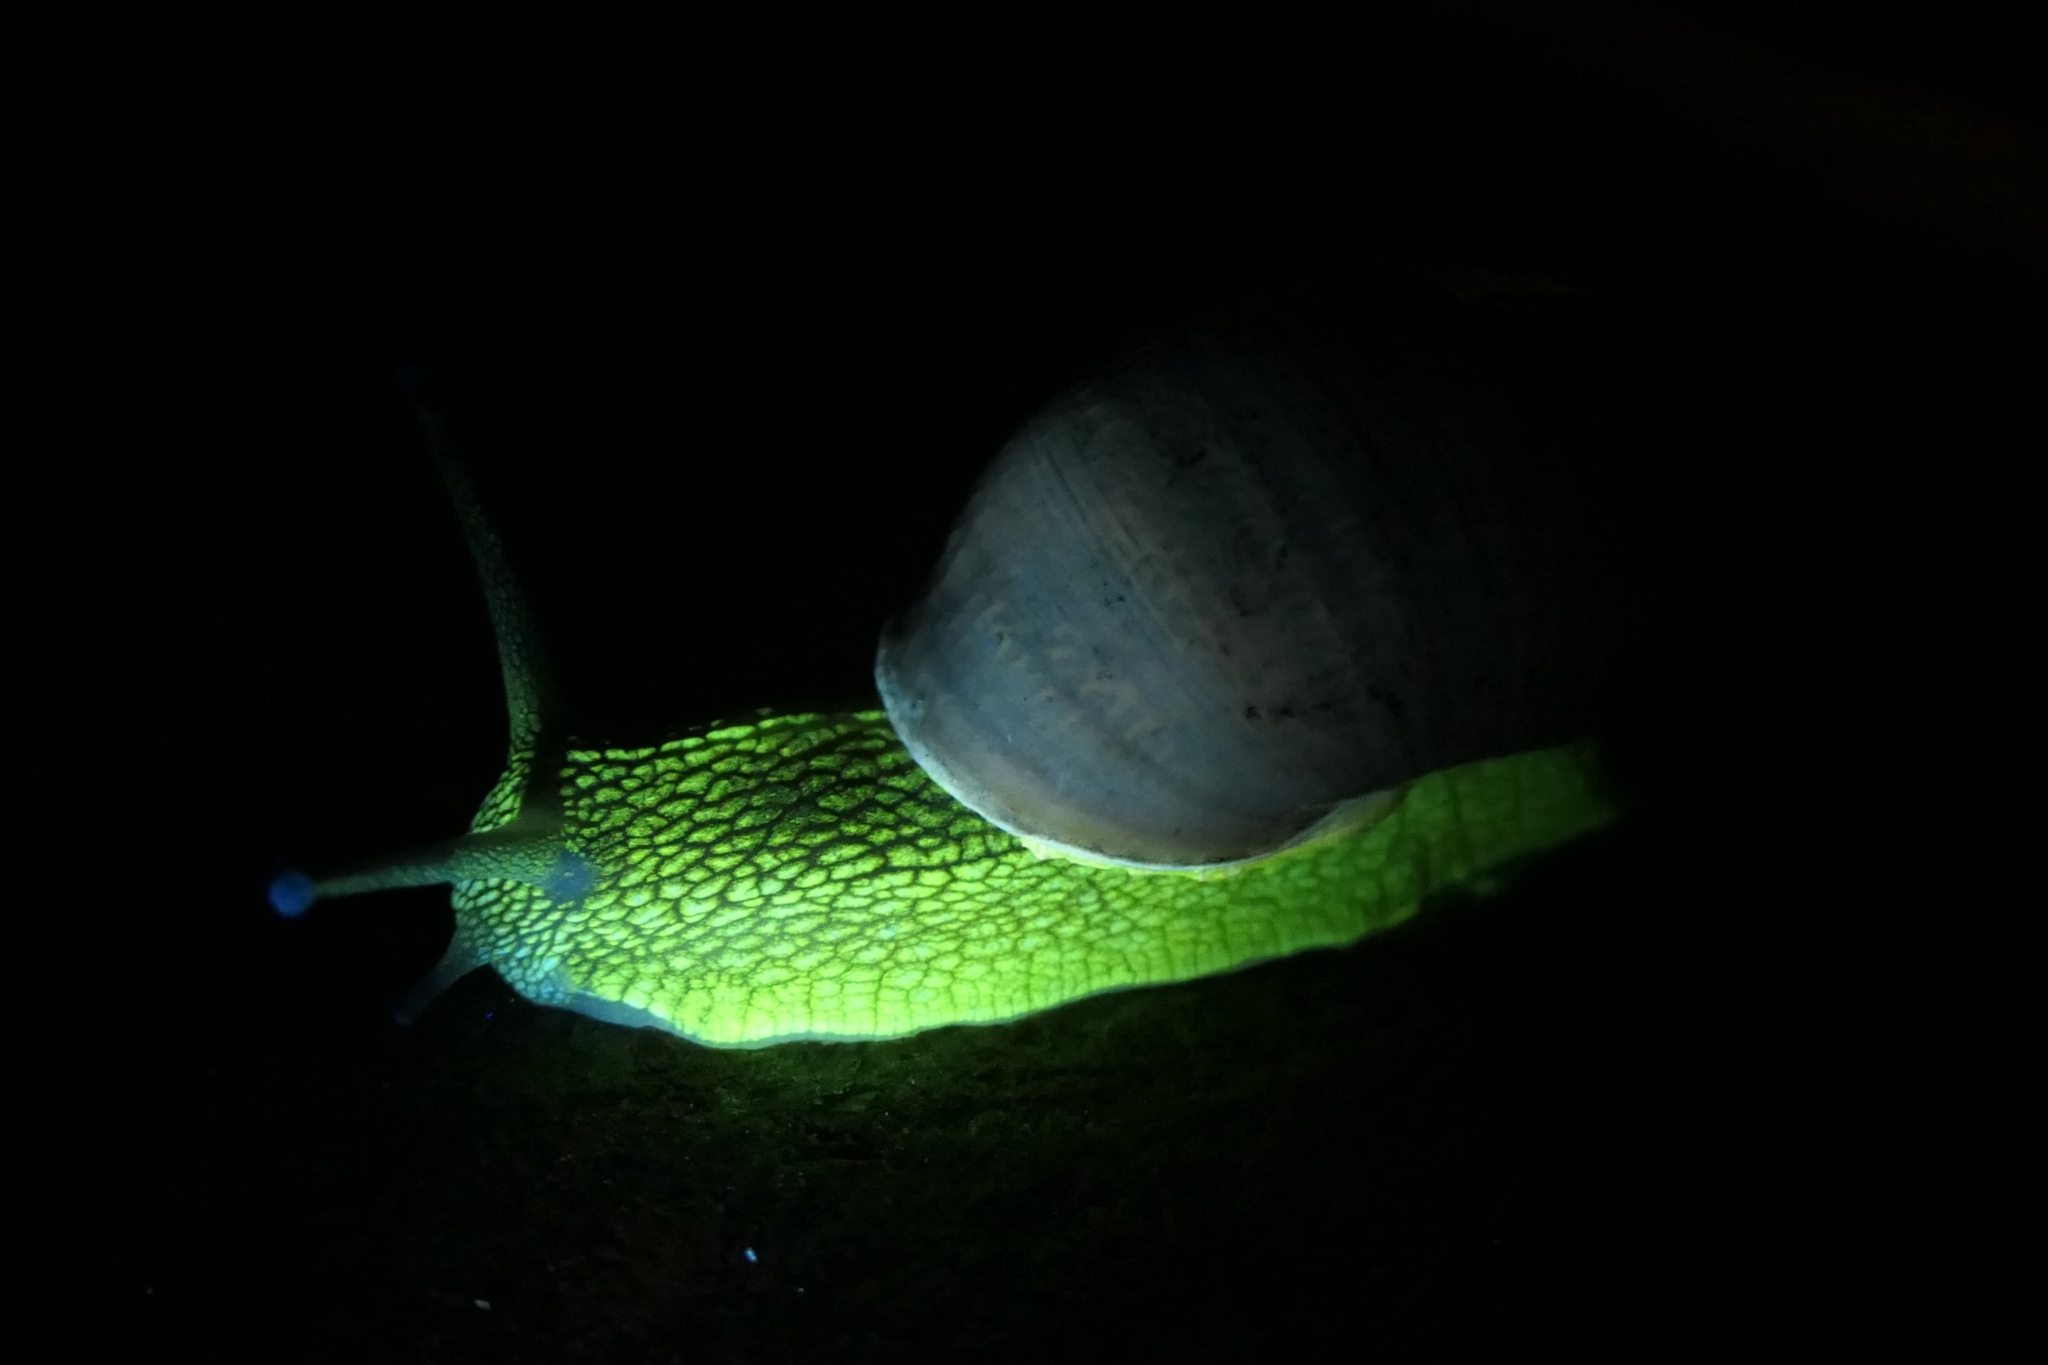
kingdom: Animalia
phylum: Mollusca
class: Gastropoda
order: Stylommatophora
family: Helicidae
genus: Cornu
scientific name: Cornu aspersum
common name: Brown garden snail
